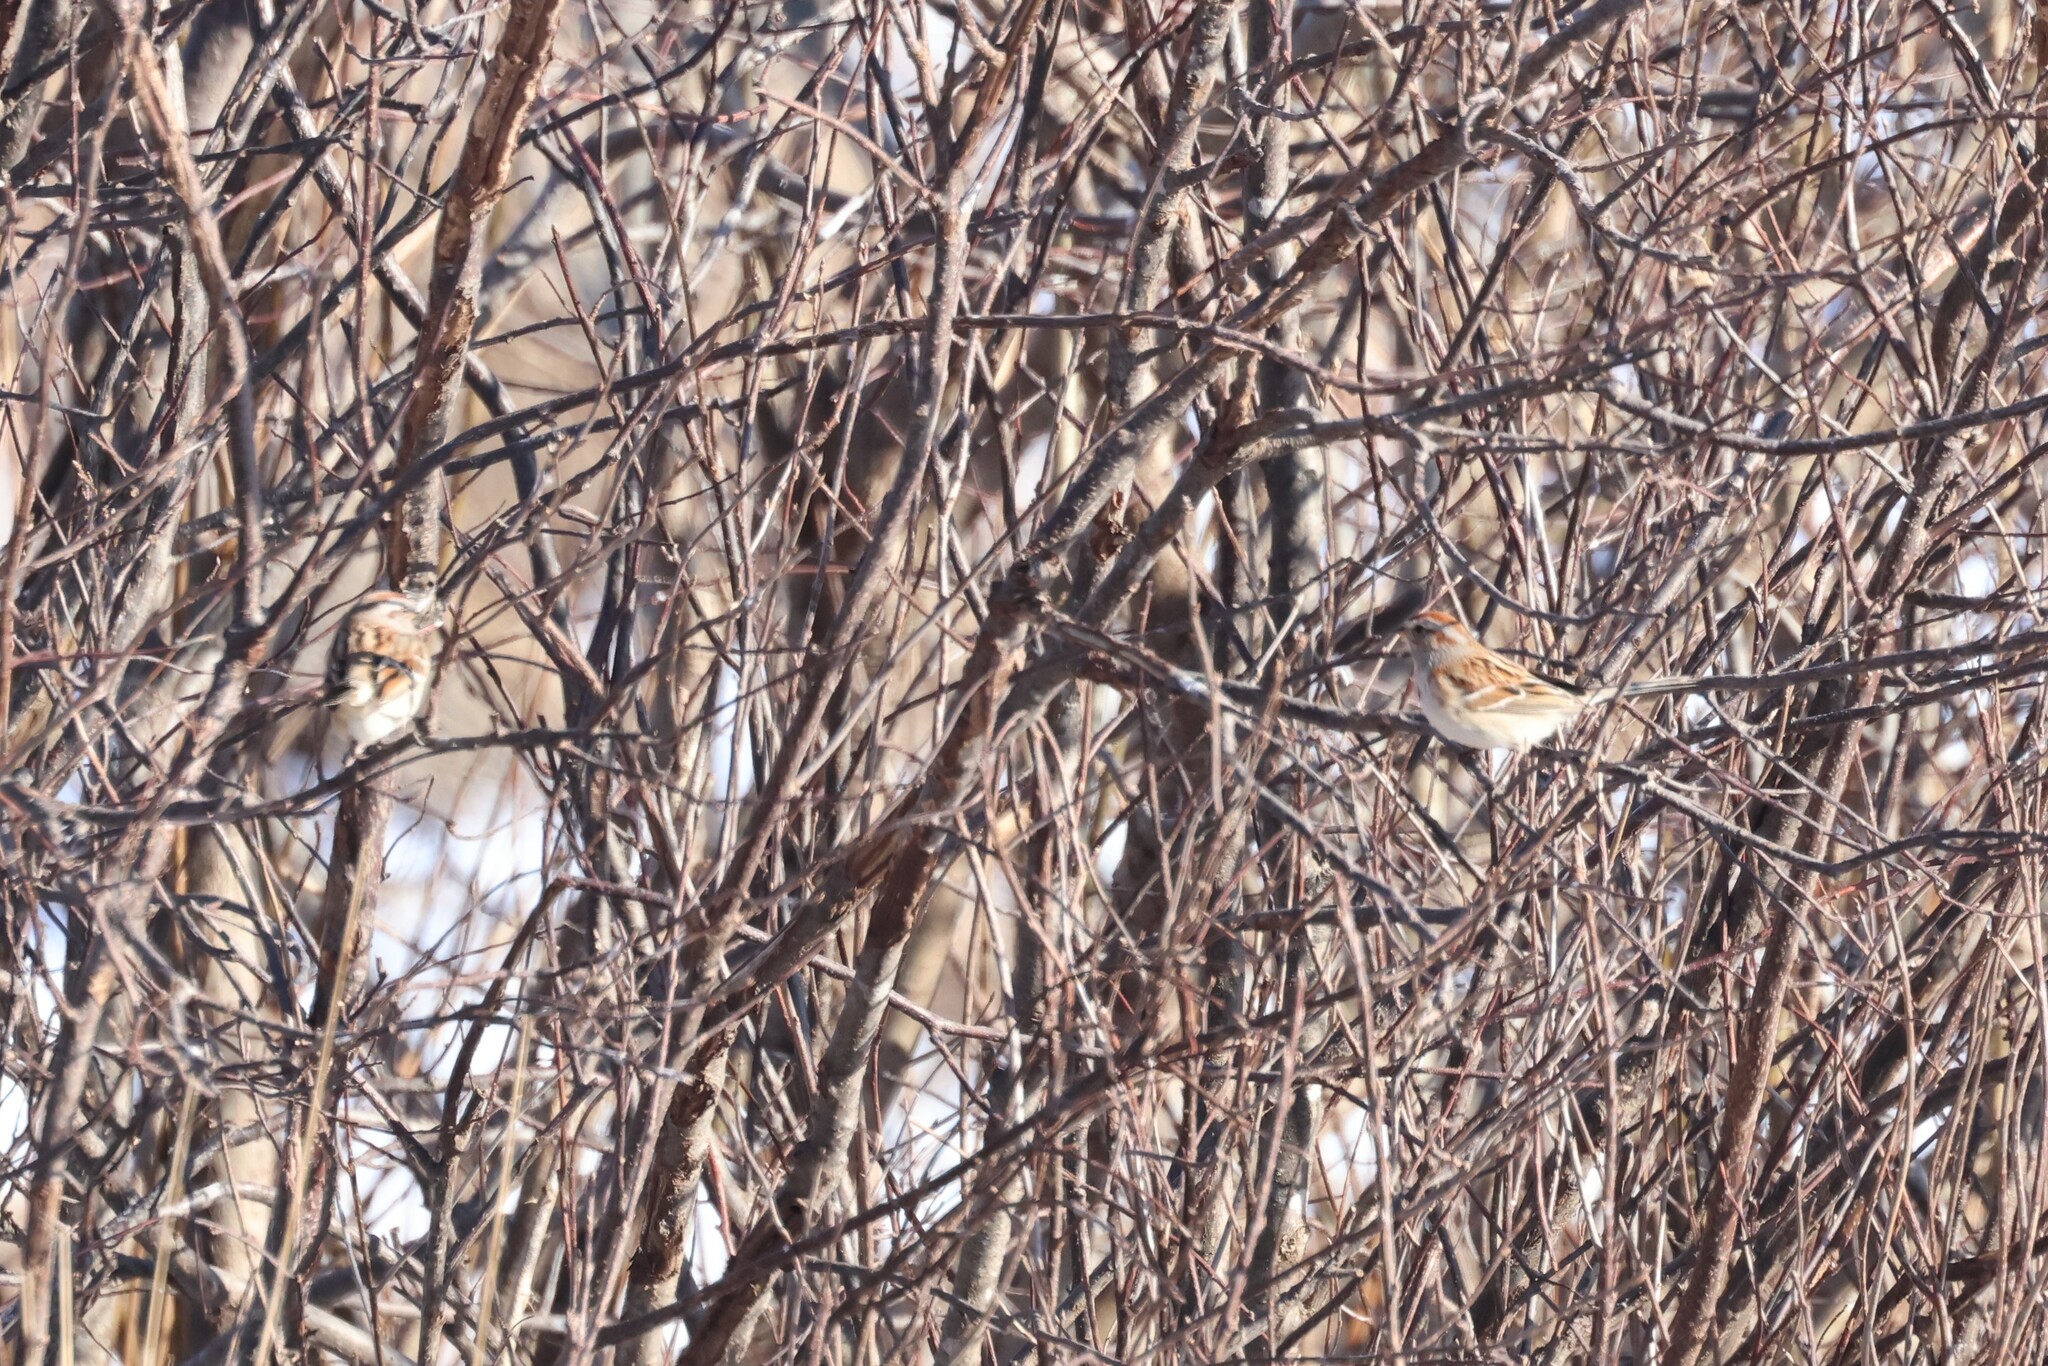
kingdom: Animalia
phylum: Chordata
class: Aves
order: Passeriformes
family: Passerellidae
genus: Spizelloides
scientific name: Spizelloides arborea
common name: American tree sparrow
